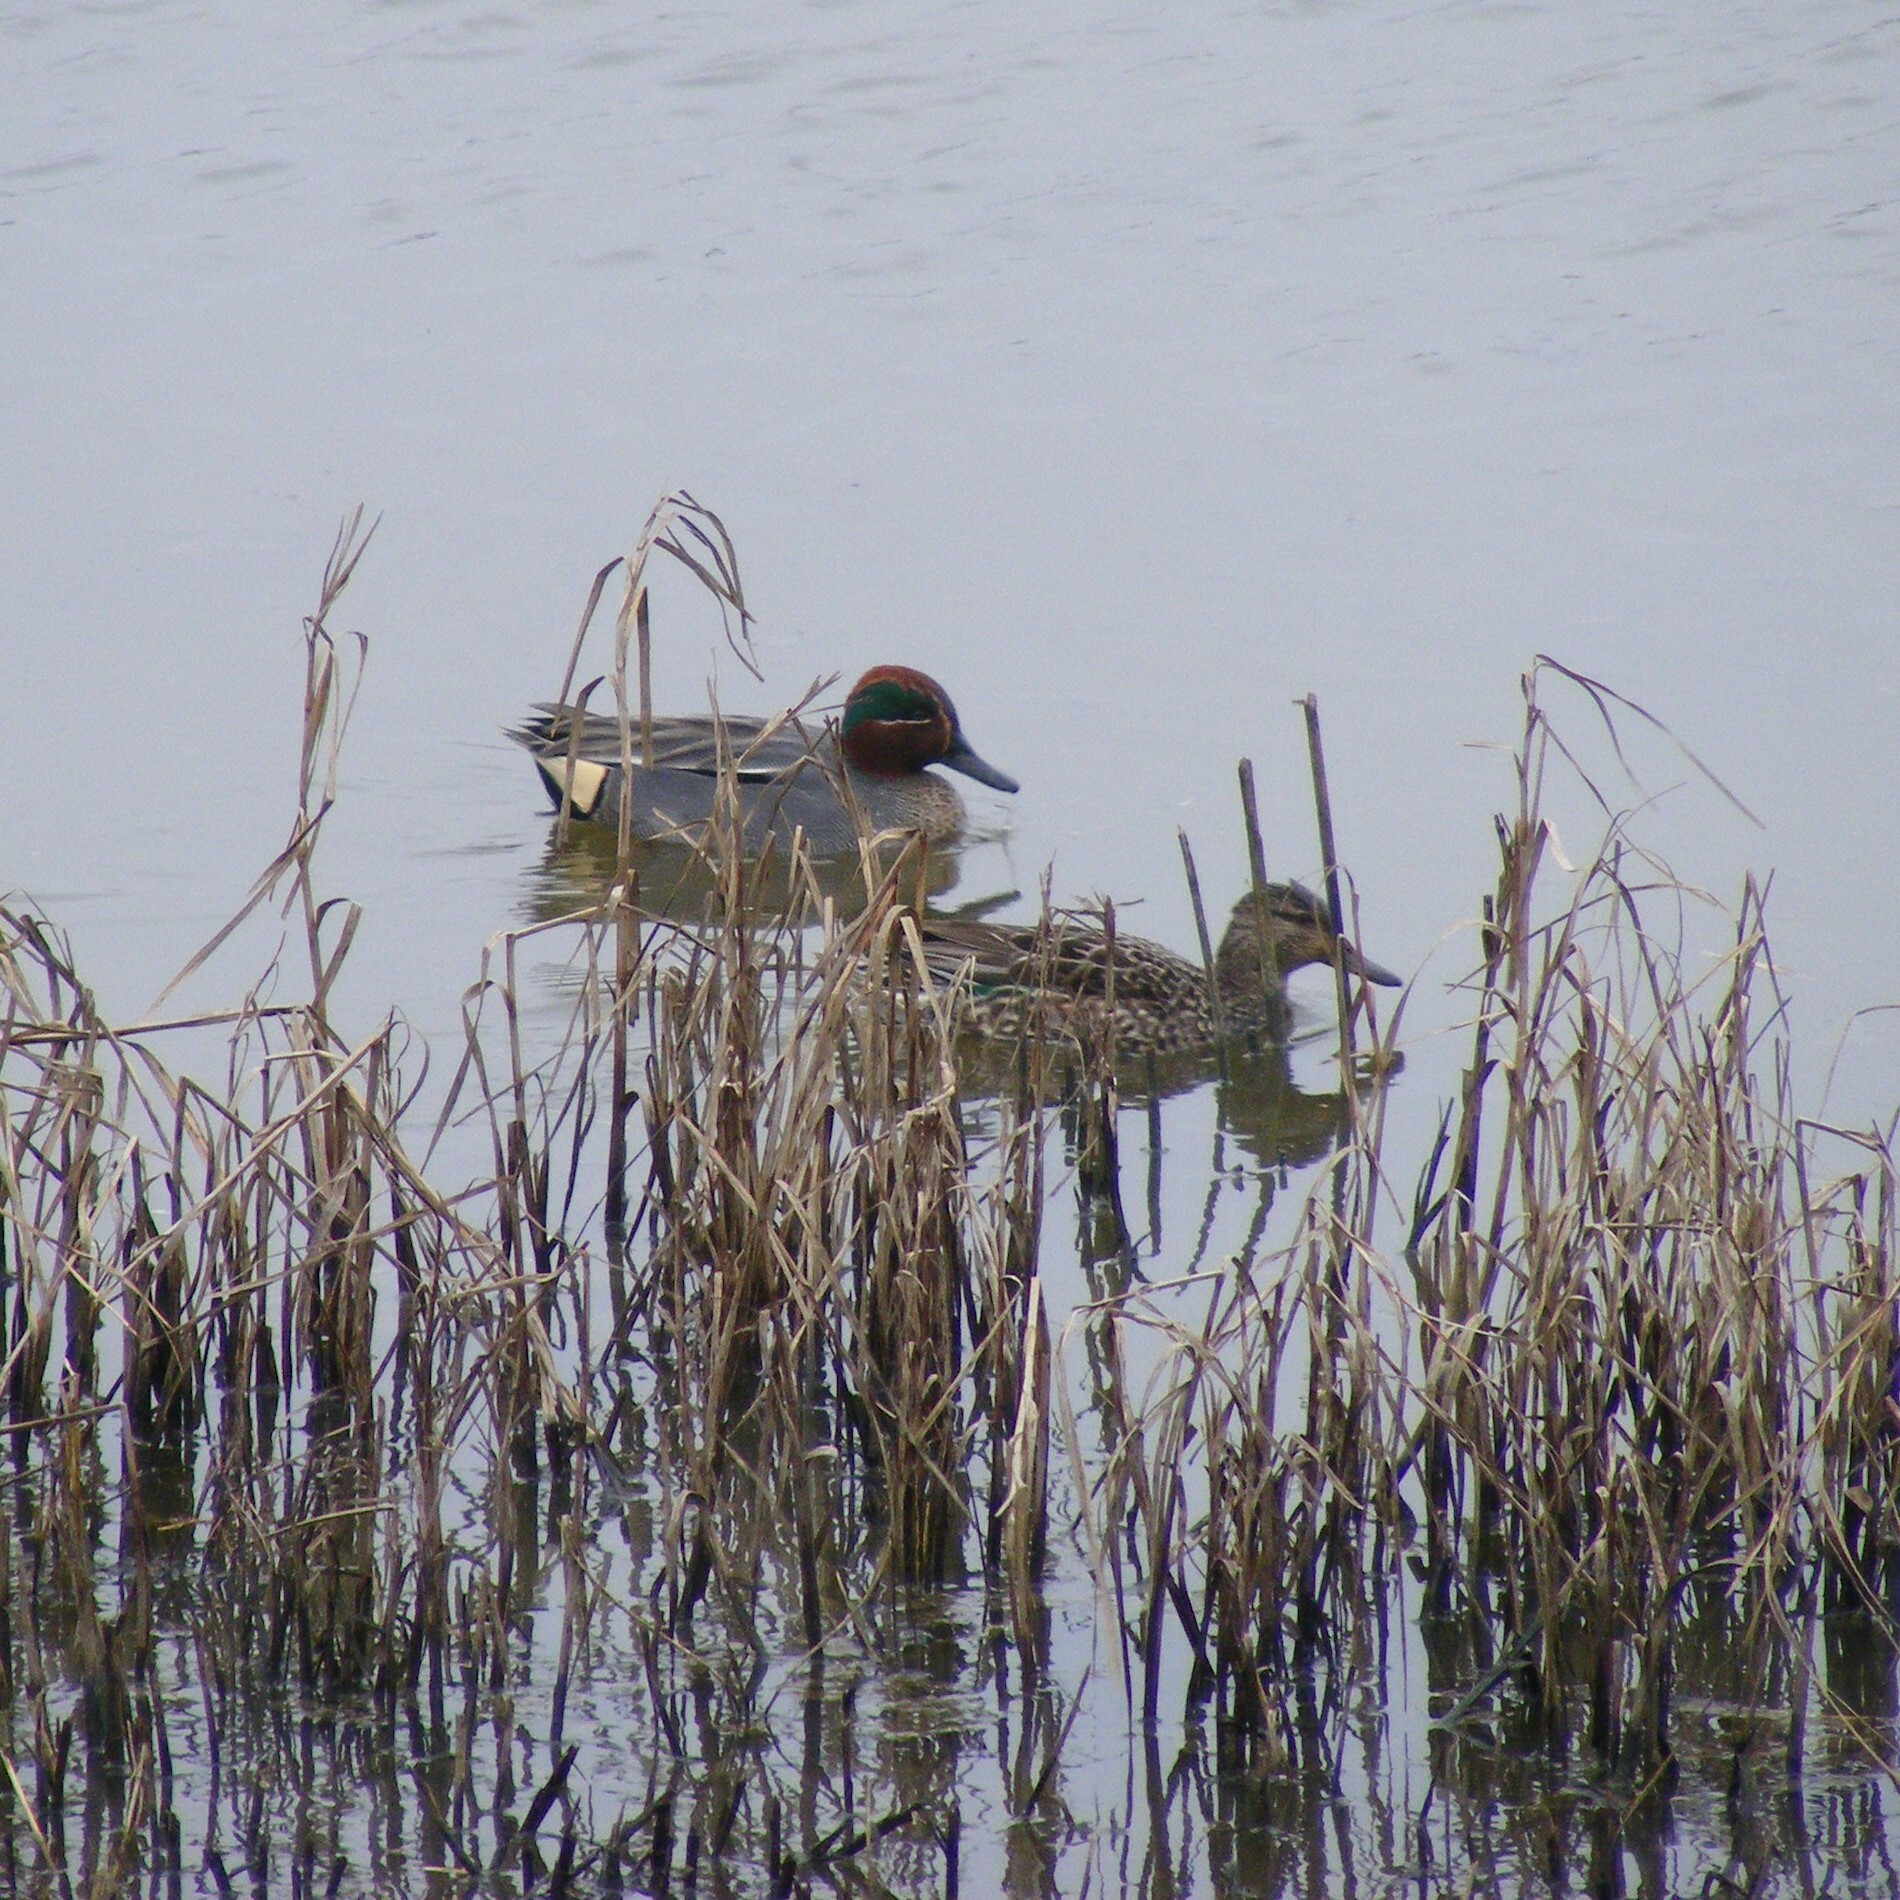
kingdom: Animalia
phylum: Chordata
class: Aves
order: Anseriformes
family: Anatidae
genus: Anas
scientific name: Anas crecca
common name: Eurasian teal
